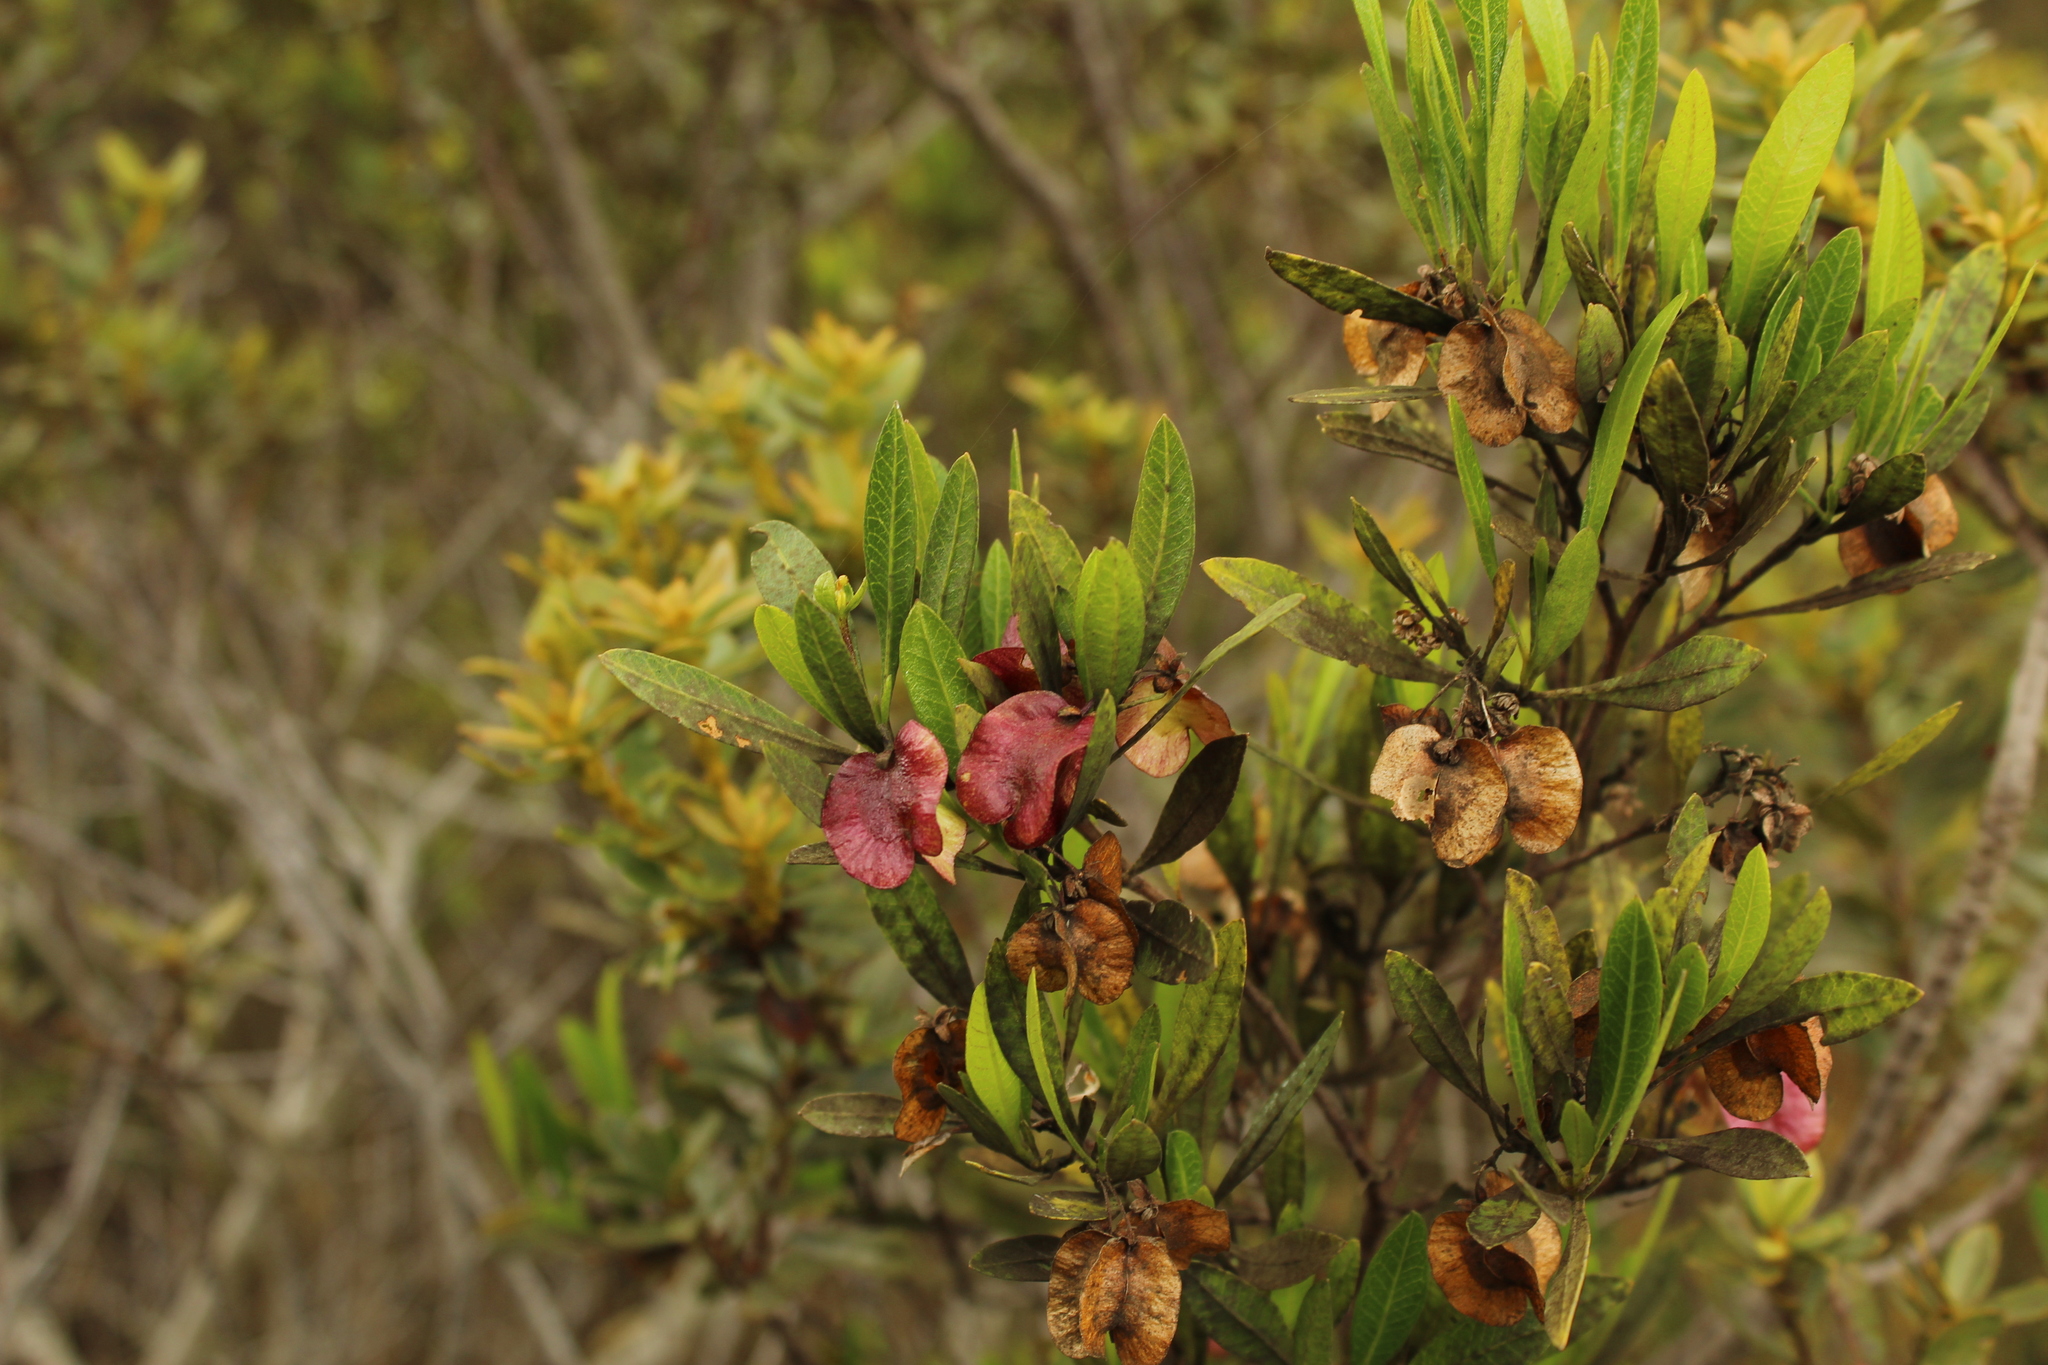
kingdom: Plantae
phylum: Tracheophyta
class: Magnoliopsida
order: Sapindales
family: Sapindaceae
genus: Dodonaea
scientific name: Dodonaea viscosa
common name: Hopbush
